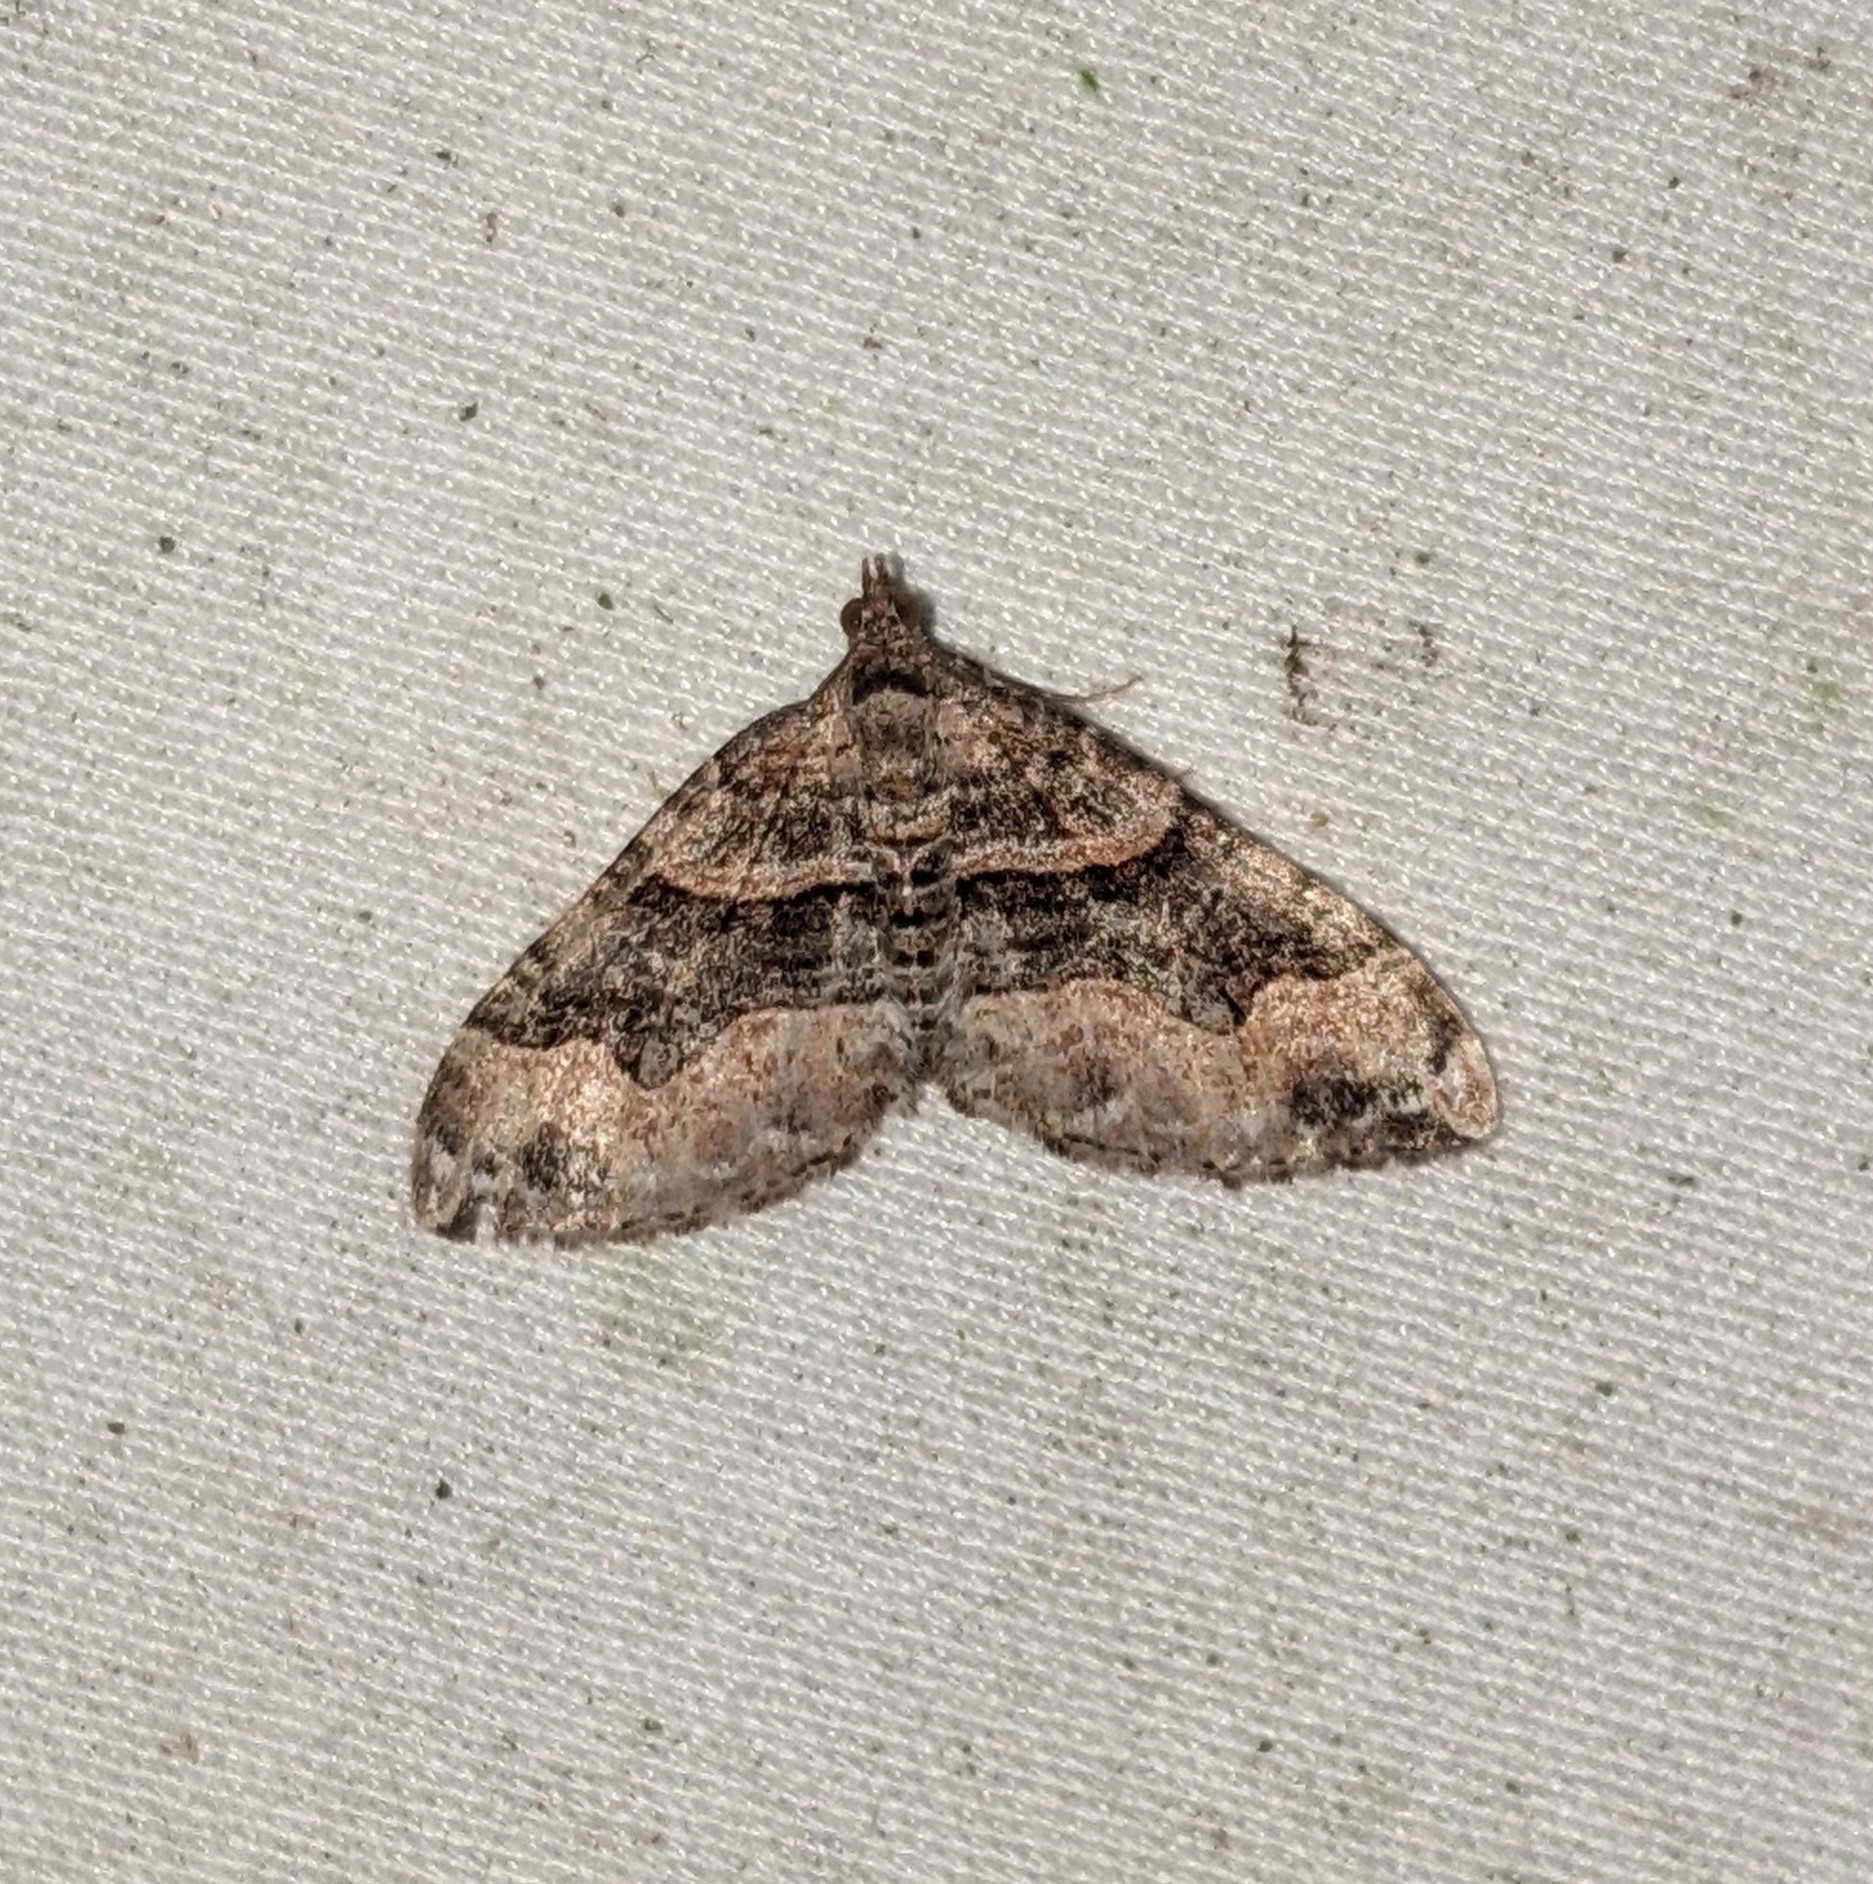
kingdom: Animalia
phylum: Arthropoda
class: Insecta
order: Lepidoptera
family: Geometridae
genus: Xanthorhoe
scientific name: Xanthorhoe defensaria
